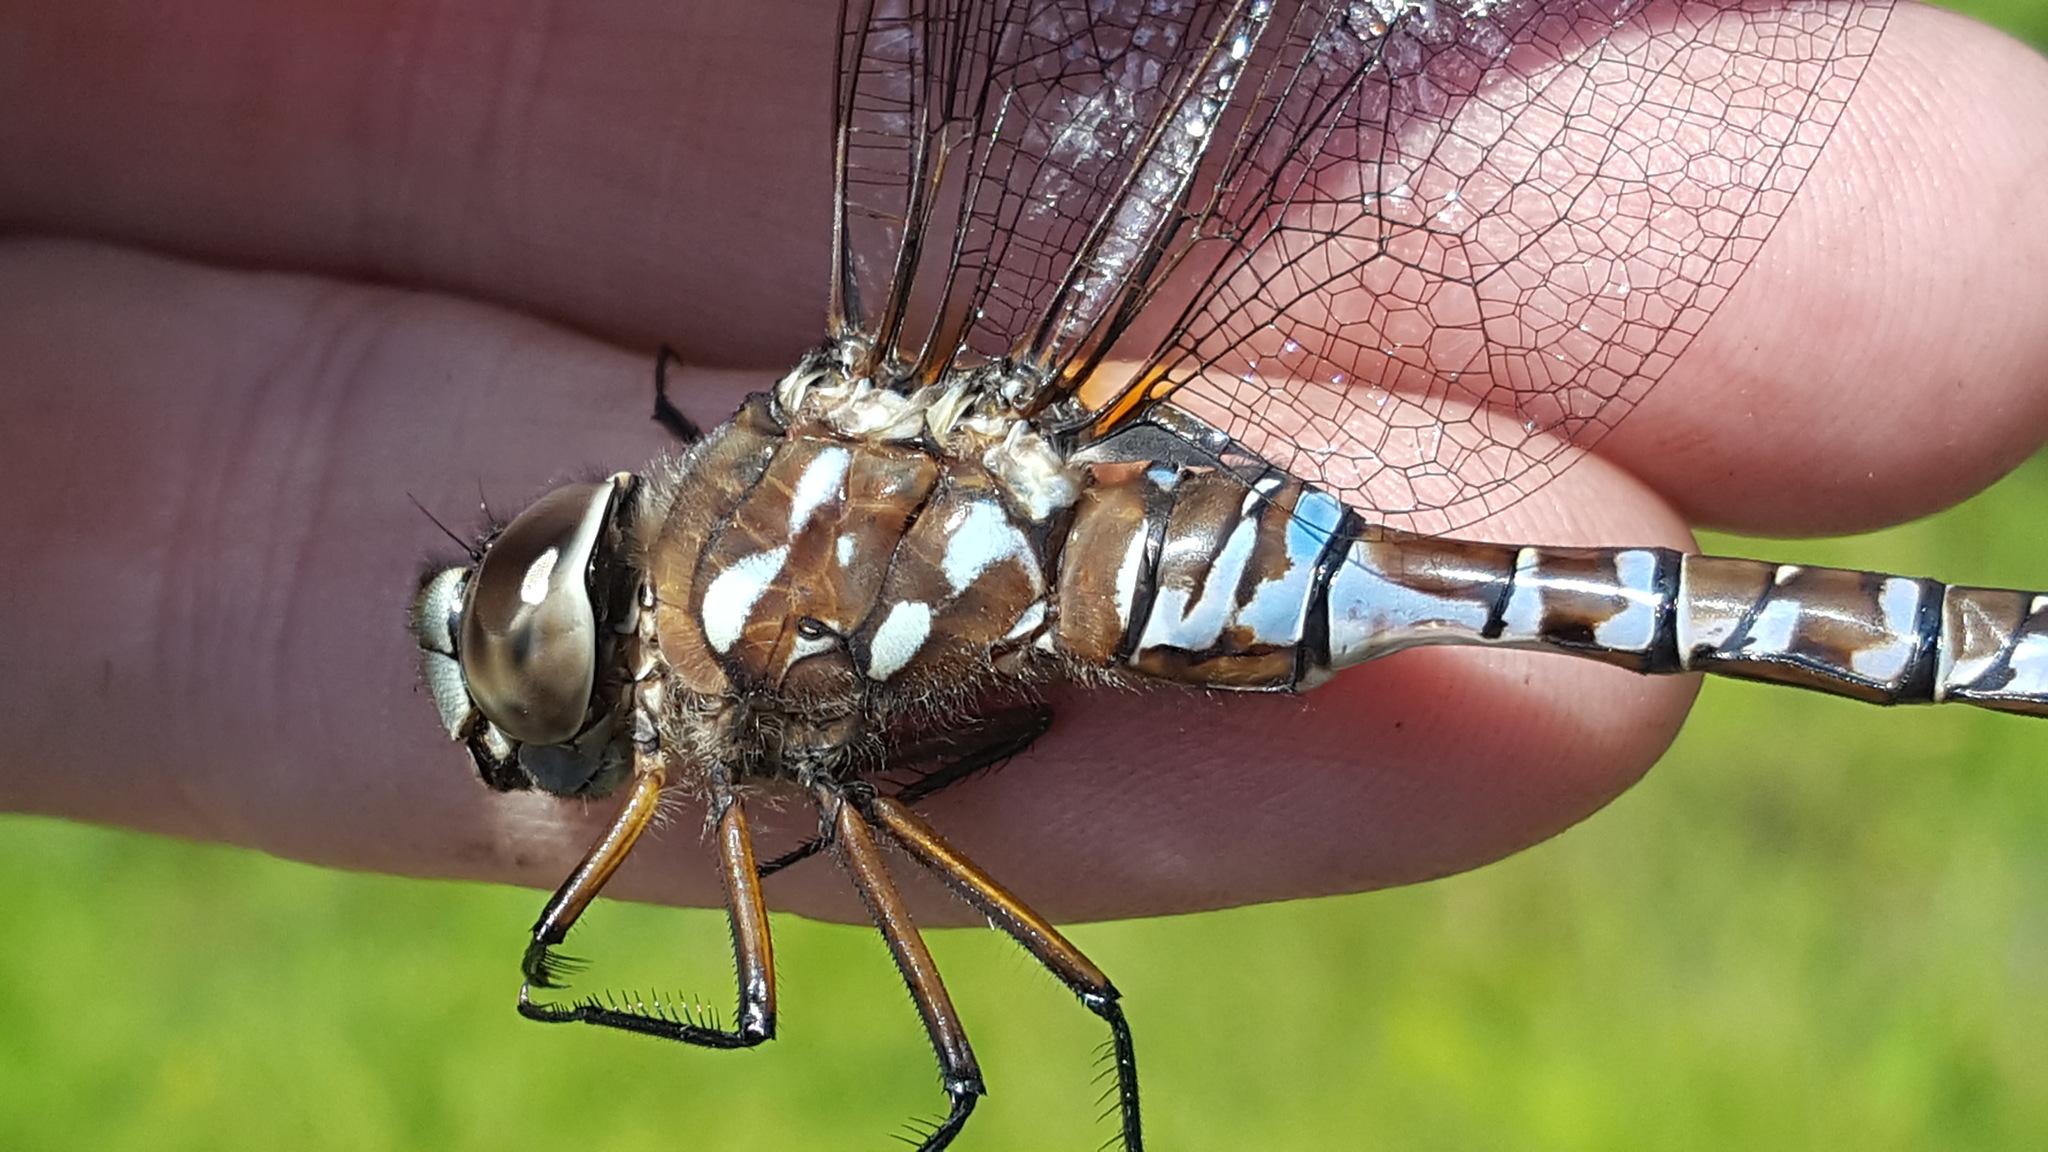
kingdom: Animalia
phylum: Arthropoda
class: Insecta
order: Odonata
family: Aeshnidae
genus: Aeshna
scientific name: Aeshna interrupta
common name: Variable darner
